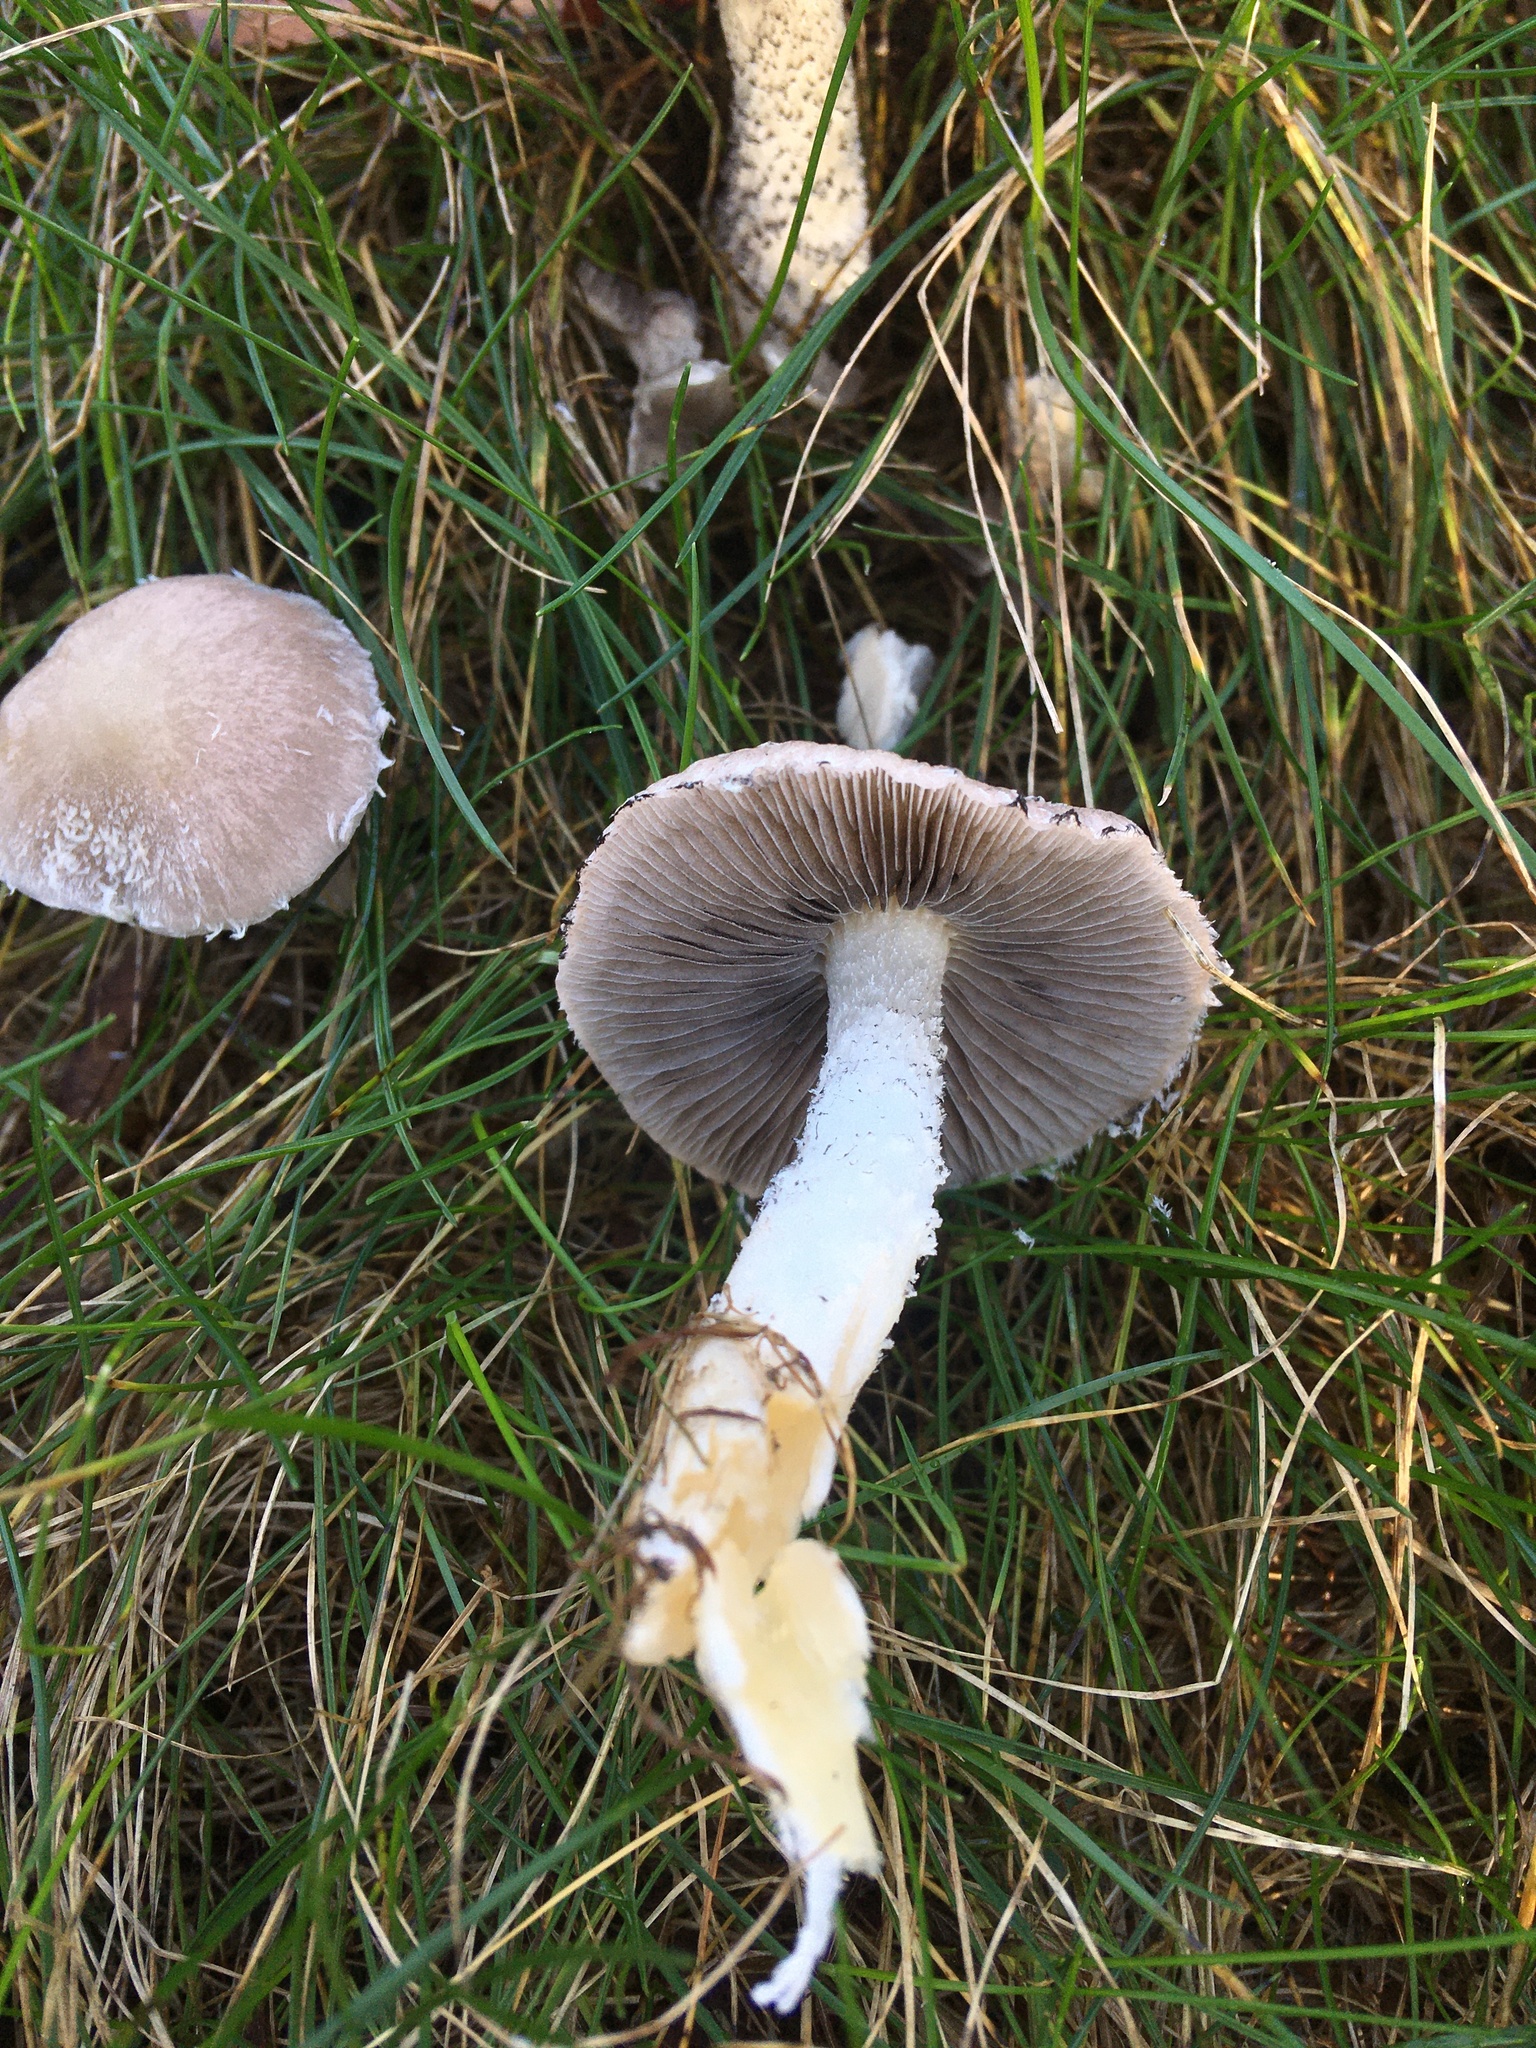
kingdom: Fungi
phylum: Basidiomycota
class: Agaricomycetes
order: Agaricales
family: Psathyrellaceae
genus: Psathyrella
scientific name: Psathyrella madida
